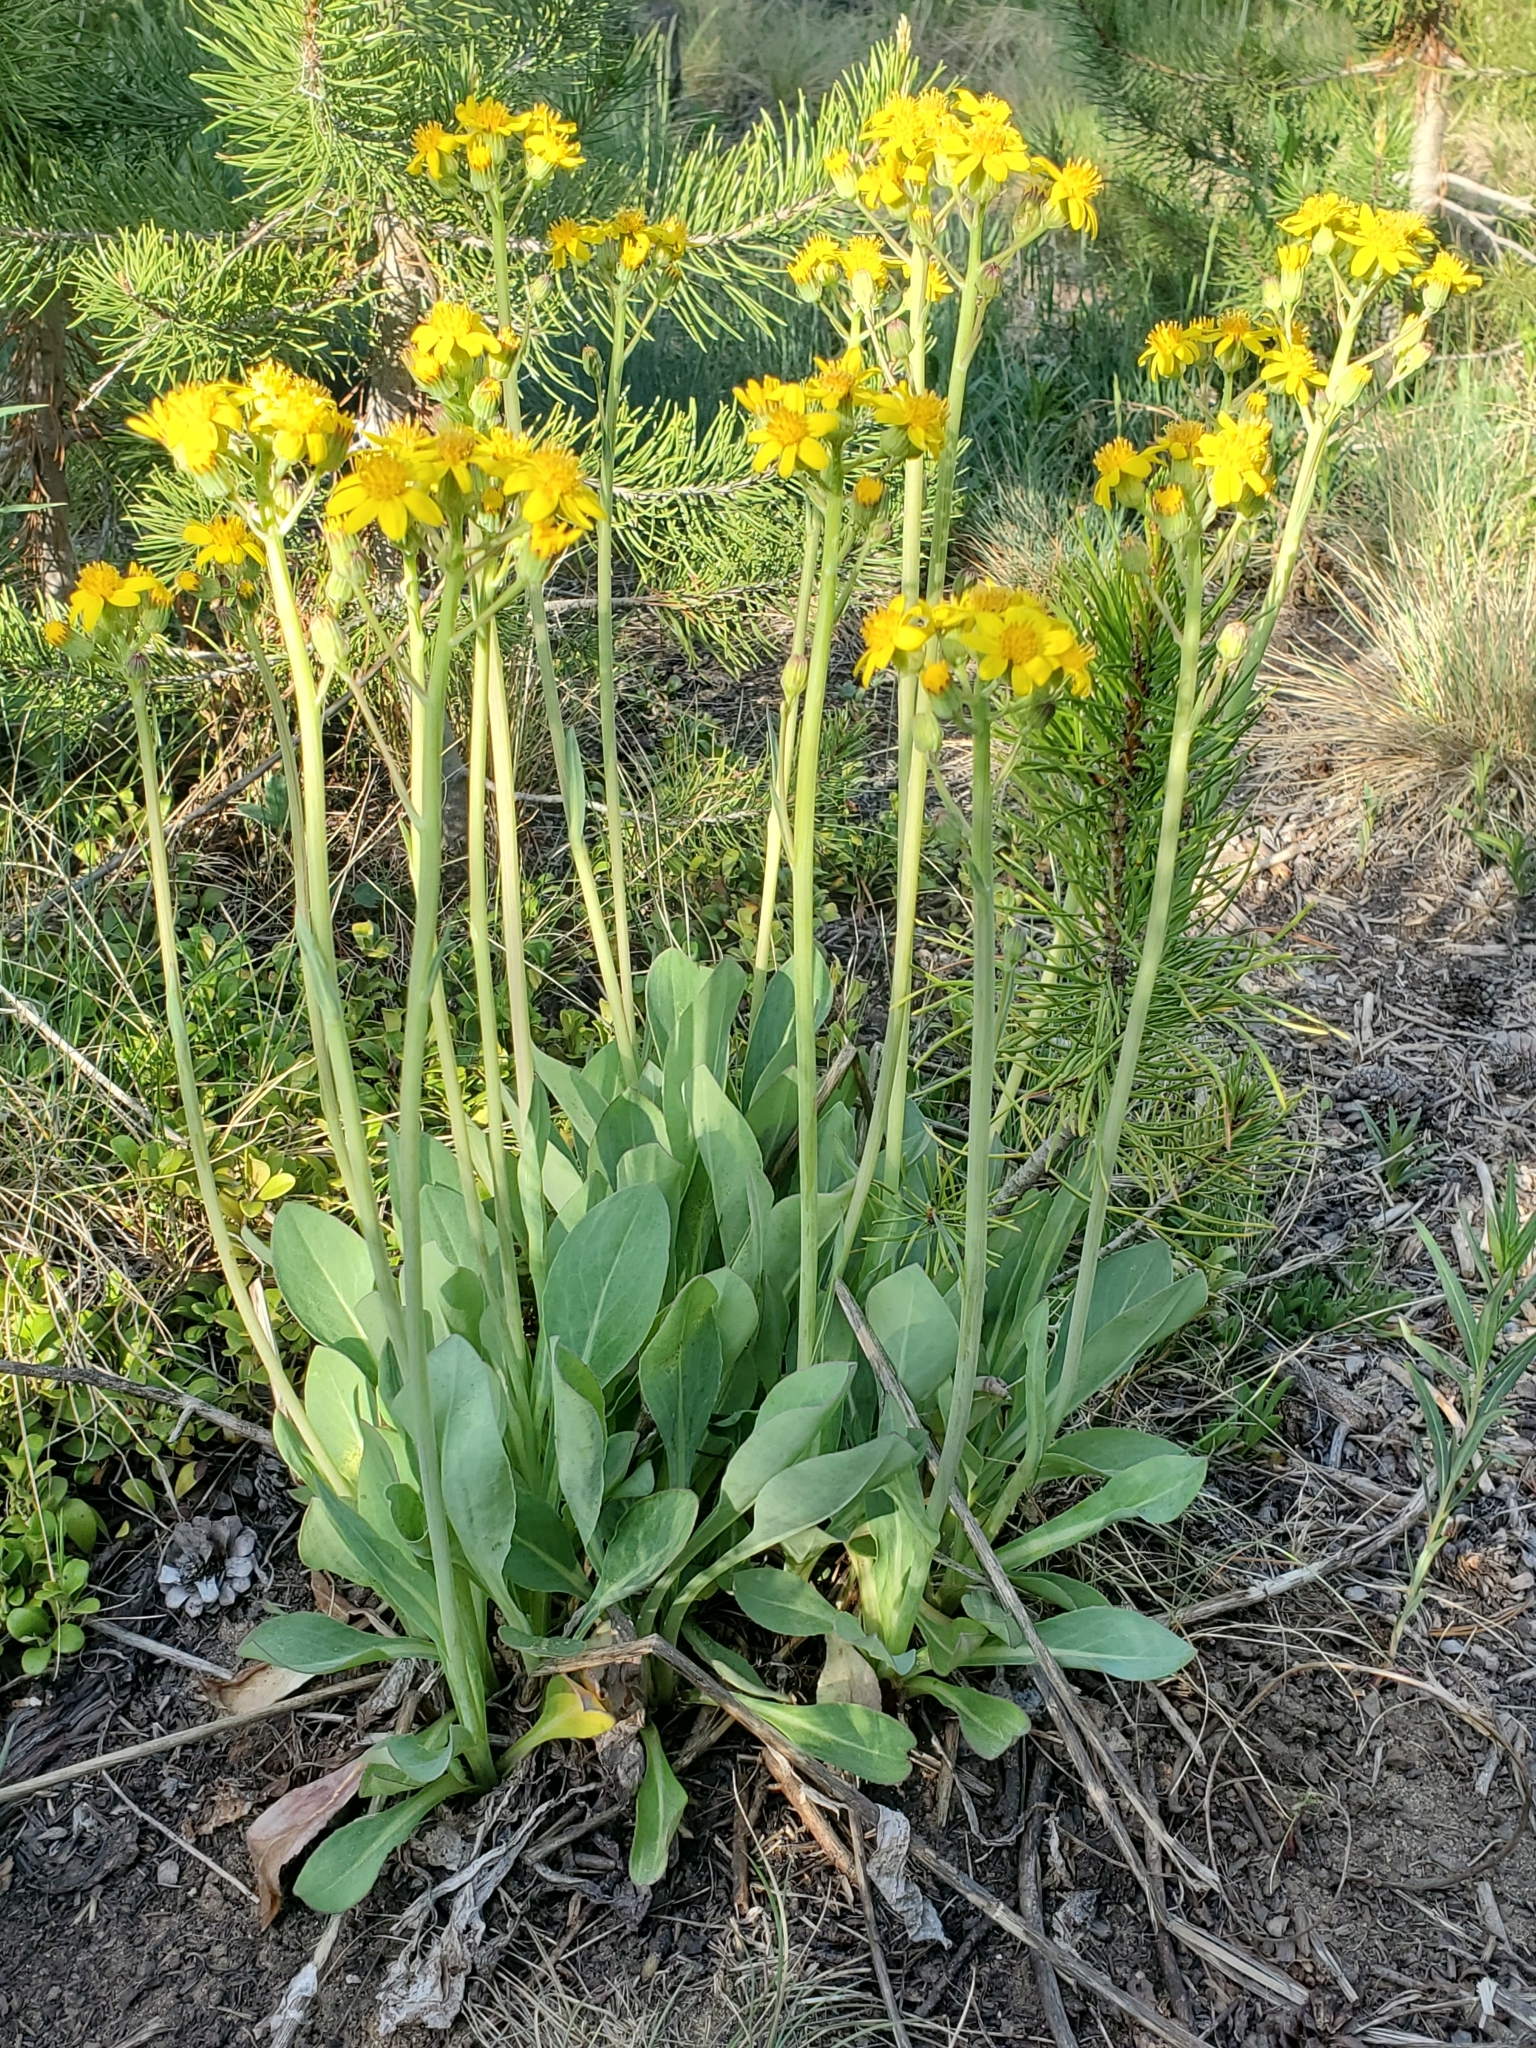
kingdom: Plantae
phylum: Tracheophyta
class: Magnoliopsida
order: Asterales
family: Asteraceae
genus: Senecio
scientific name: Senecio wootonii
